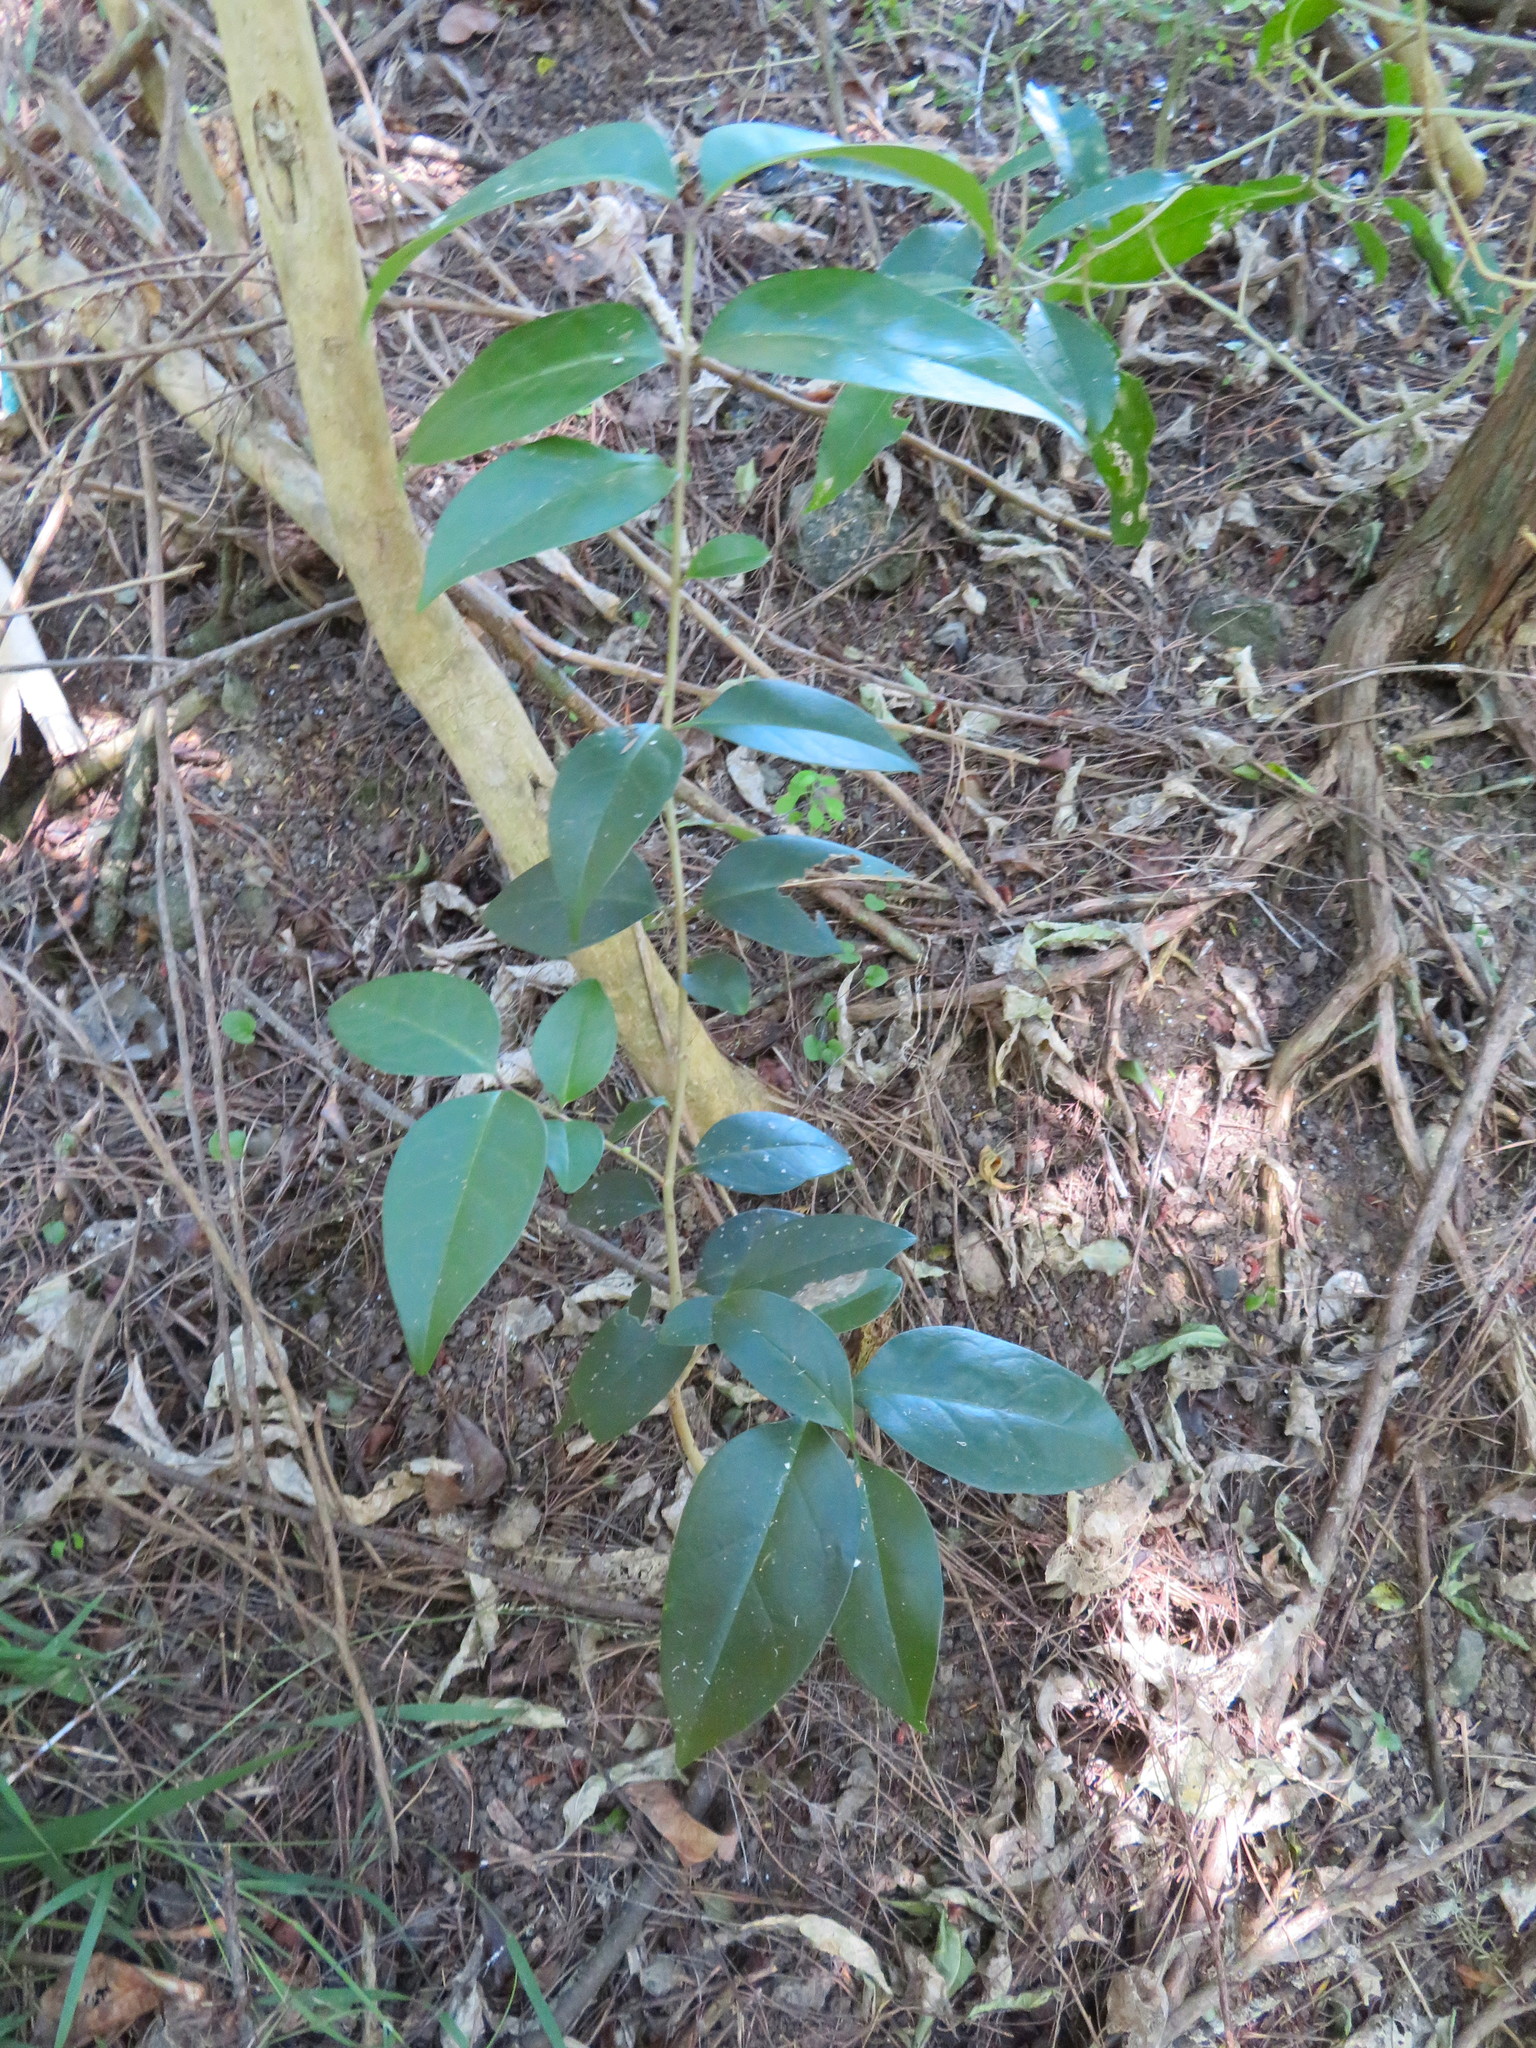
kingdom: Plantae
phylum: Tracheophyta
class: Magnoliopsida
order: Lamiales
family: Oleaceae
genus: Ligustrum
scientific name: Ligustrum lucidum
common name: Glossy privet
